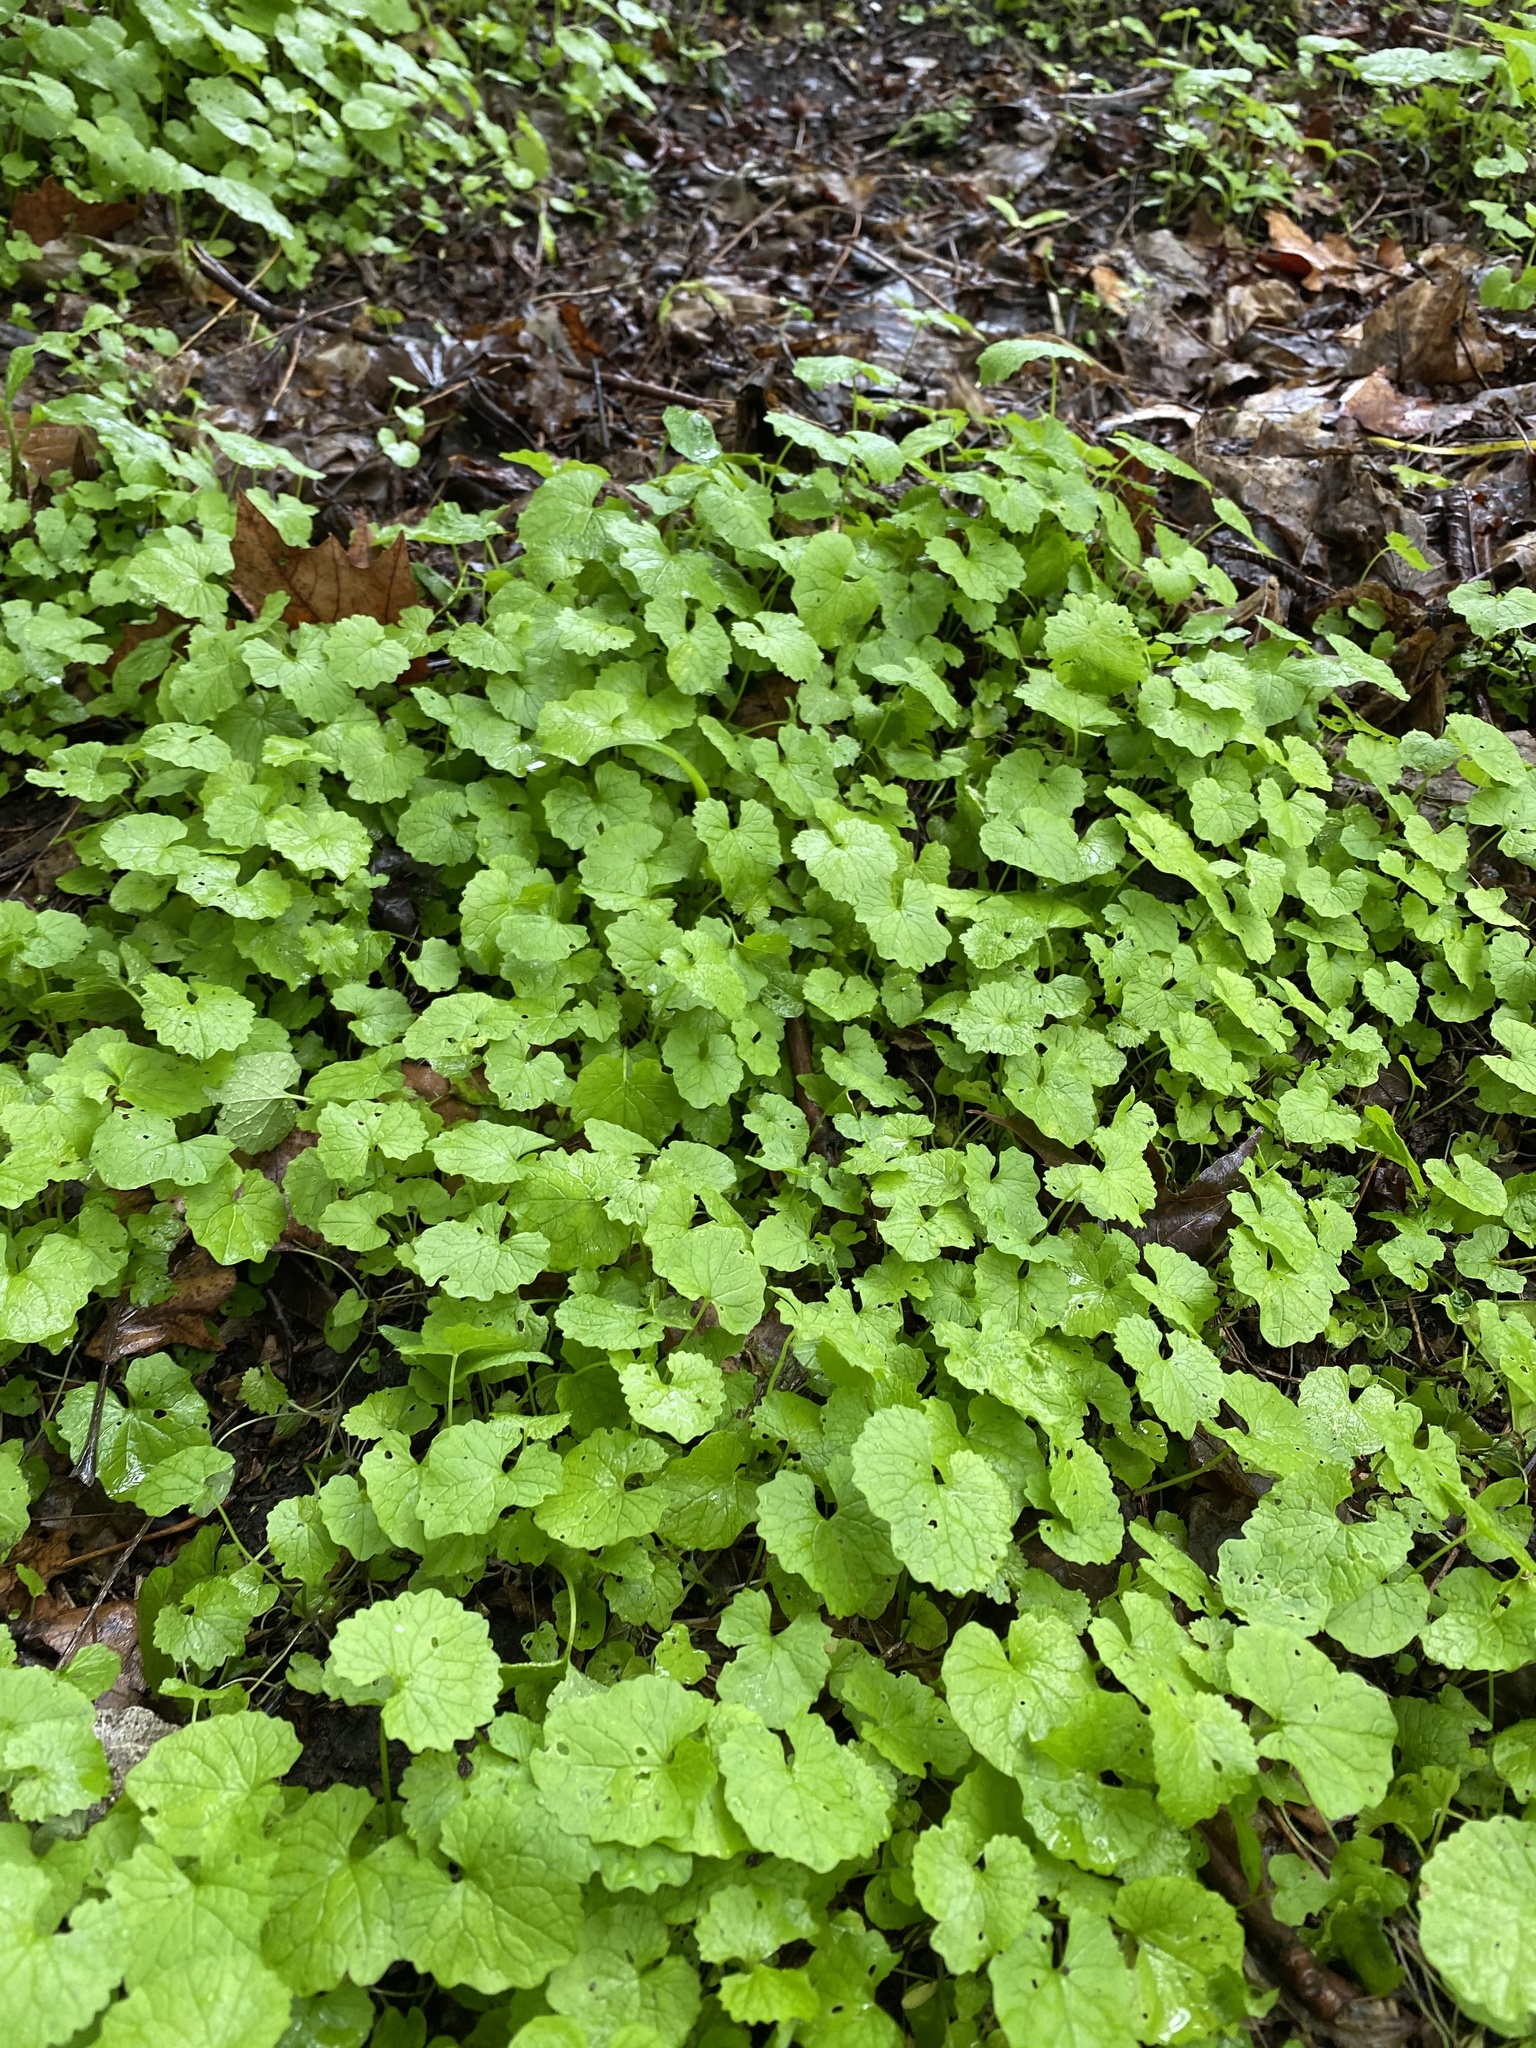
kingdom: Plantae
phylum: Tracheophyta
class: Magnoliopsida
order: Brassicales
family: Brassicaceae
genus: Alliaria
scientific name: Alliaria petiolata
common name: Garlic mustard
